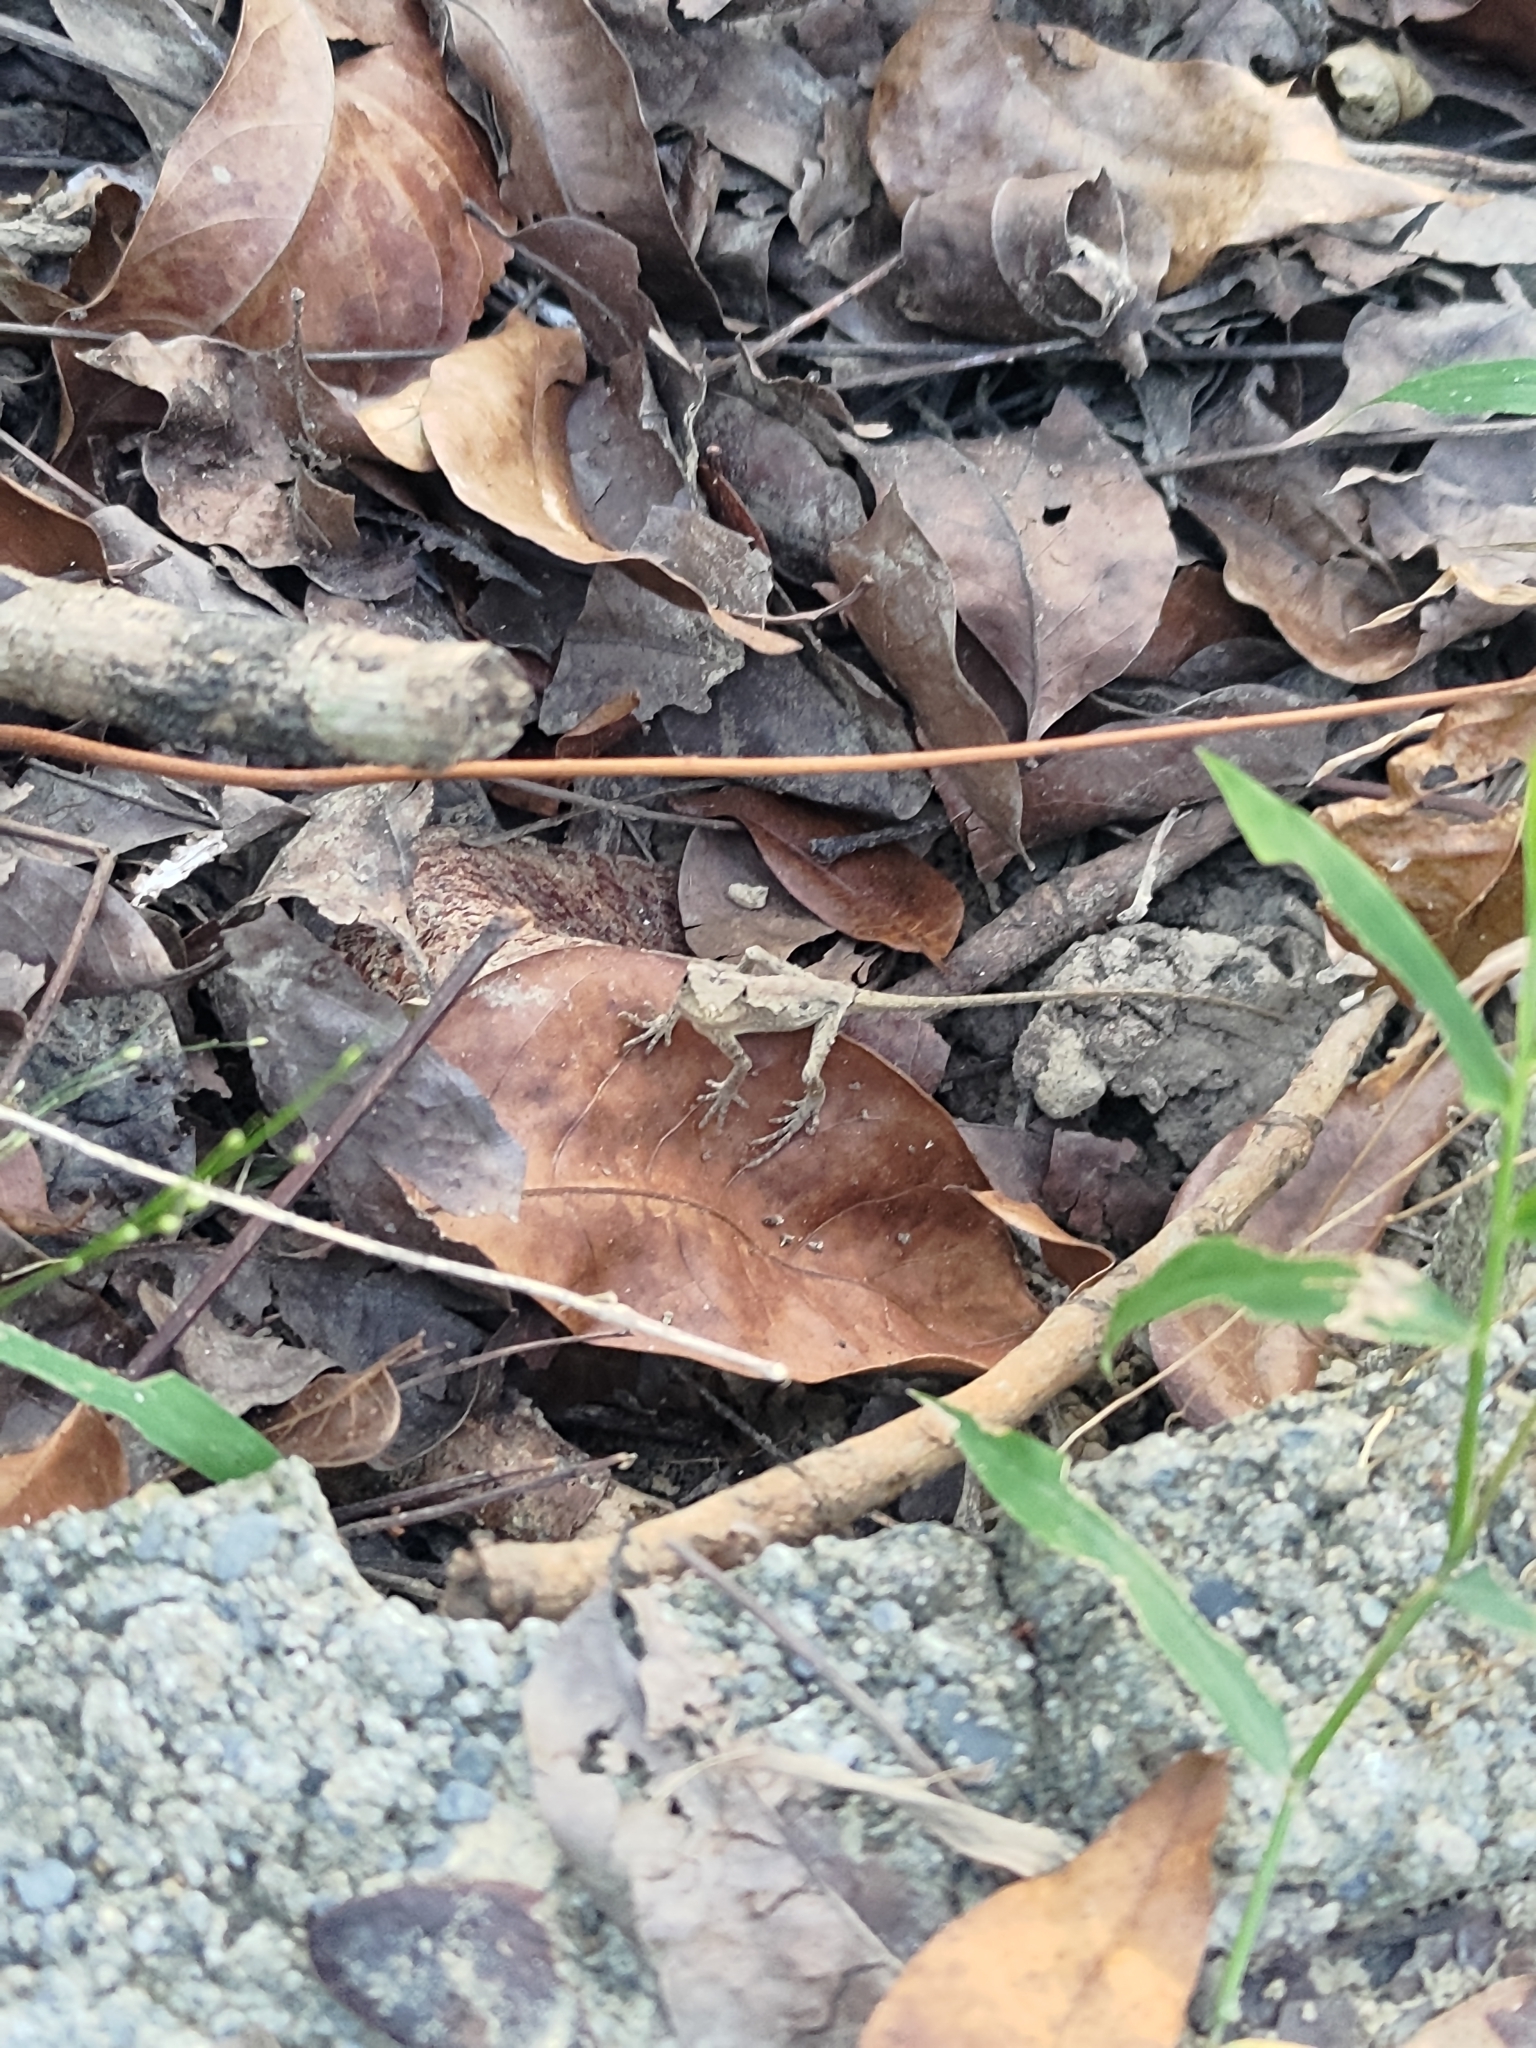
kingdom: Animalia
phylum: Chordata
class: Squamata
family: Agamidae
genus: Diploderma
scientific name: Diploderma swinhonis
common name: Taiwan japalure
